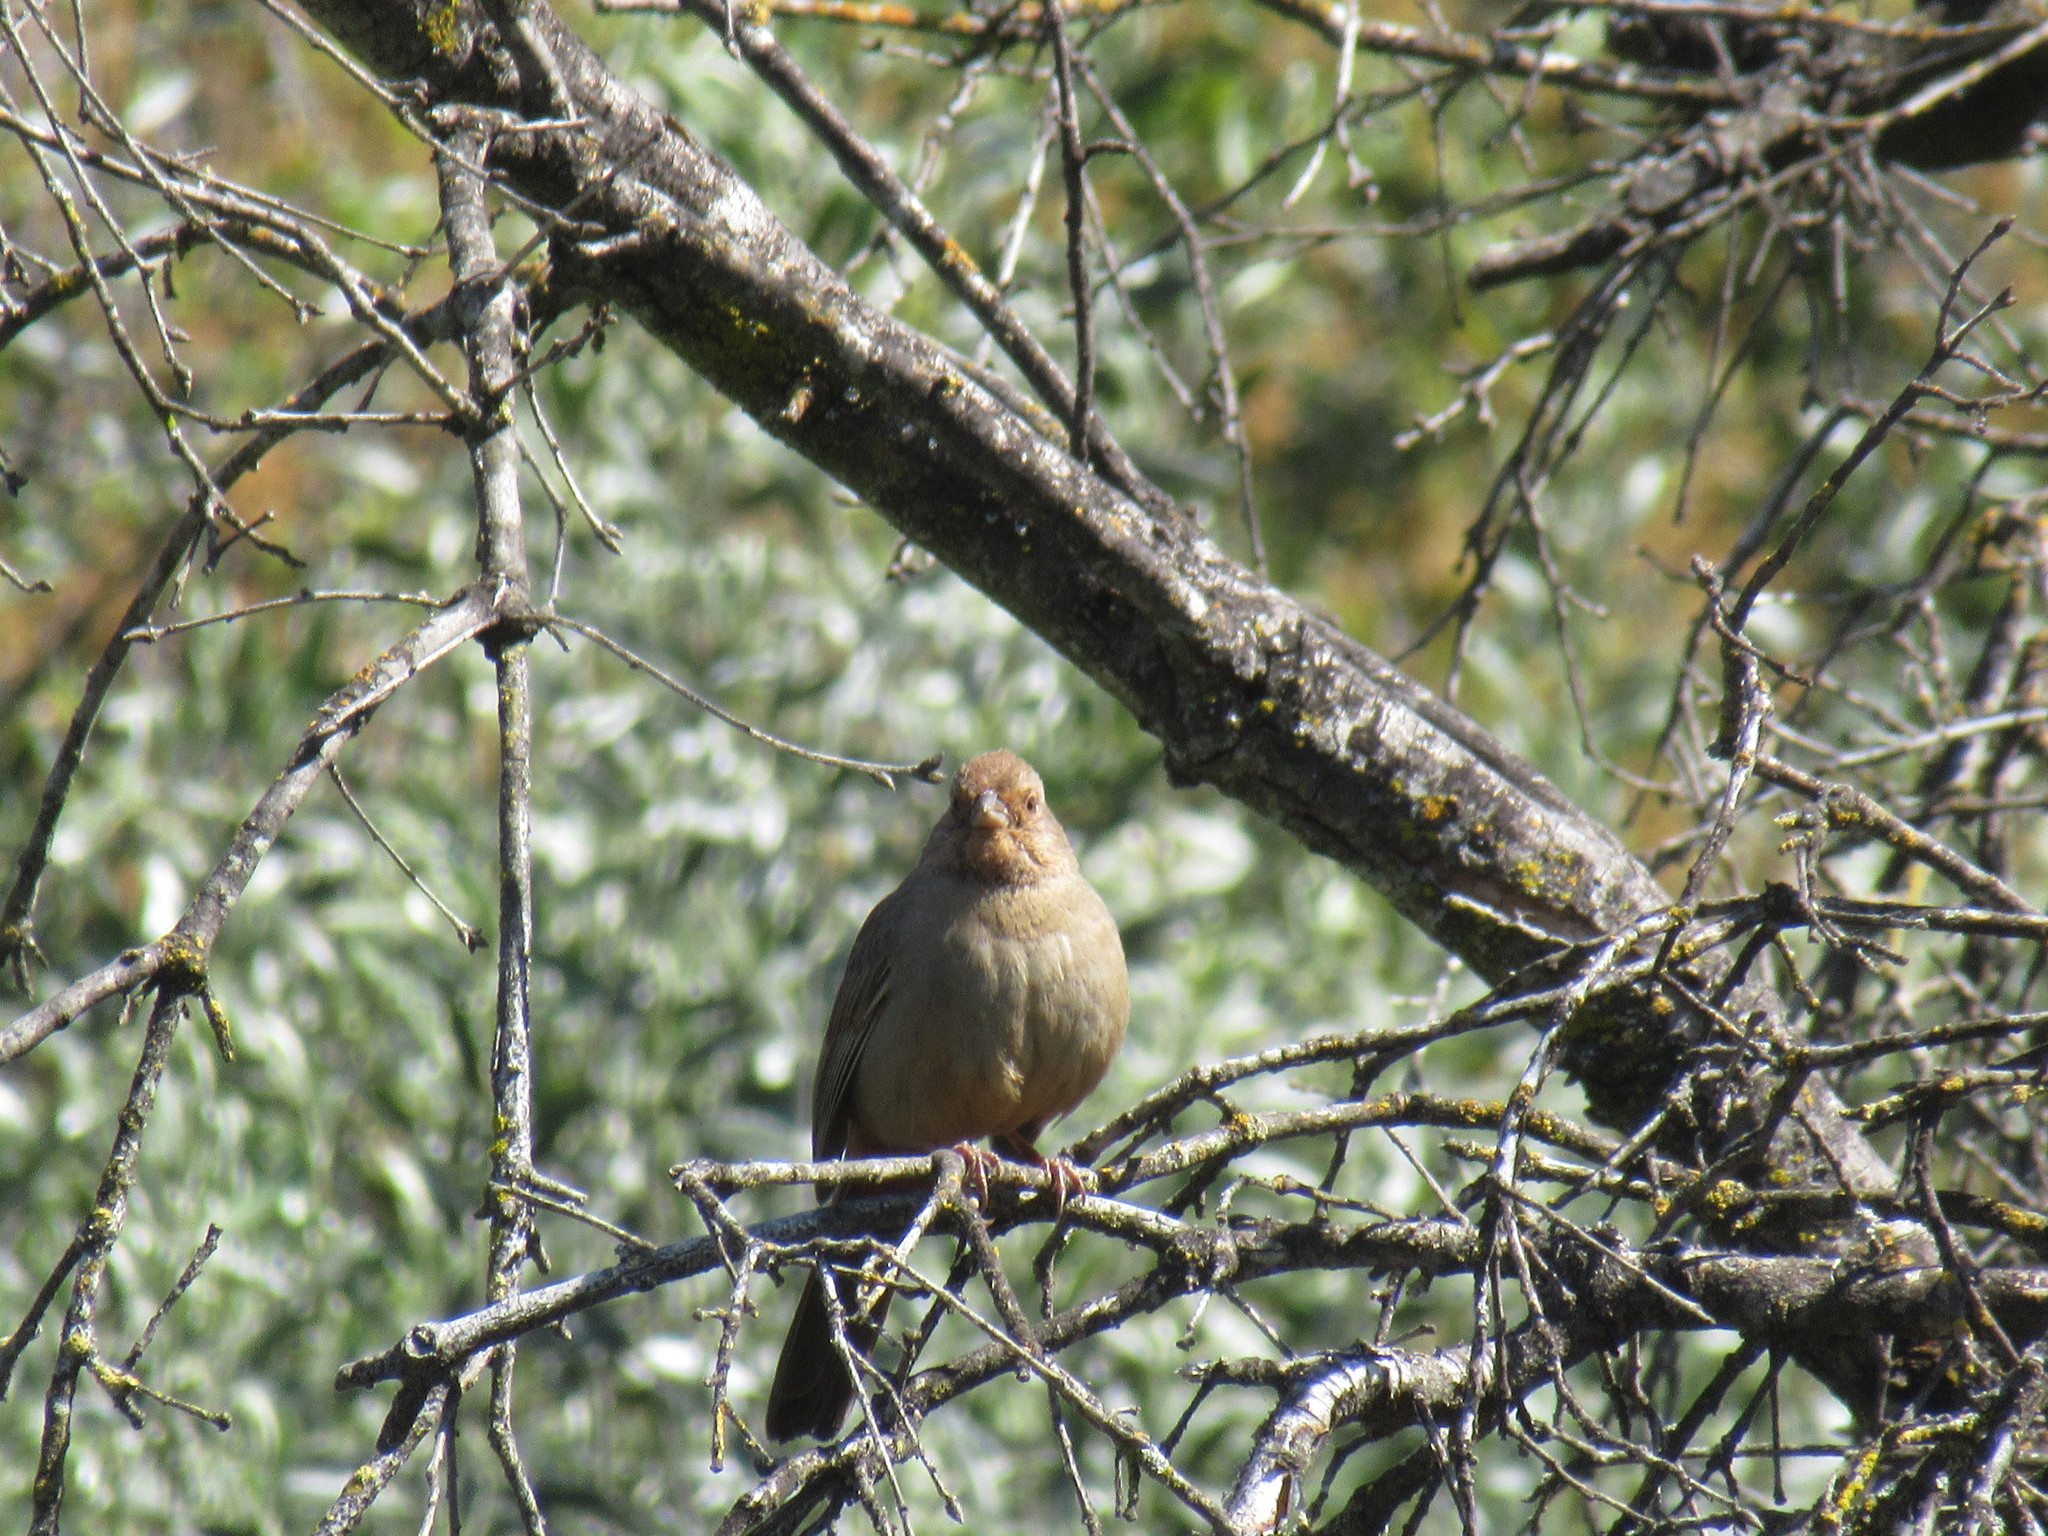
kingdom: Animalia
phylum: Chordata
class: Aves
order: Passeriformes
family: Passerellidae
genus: Melozone
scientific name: Melozone crissalis
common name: California towhee
